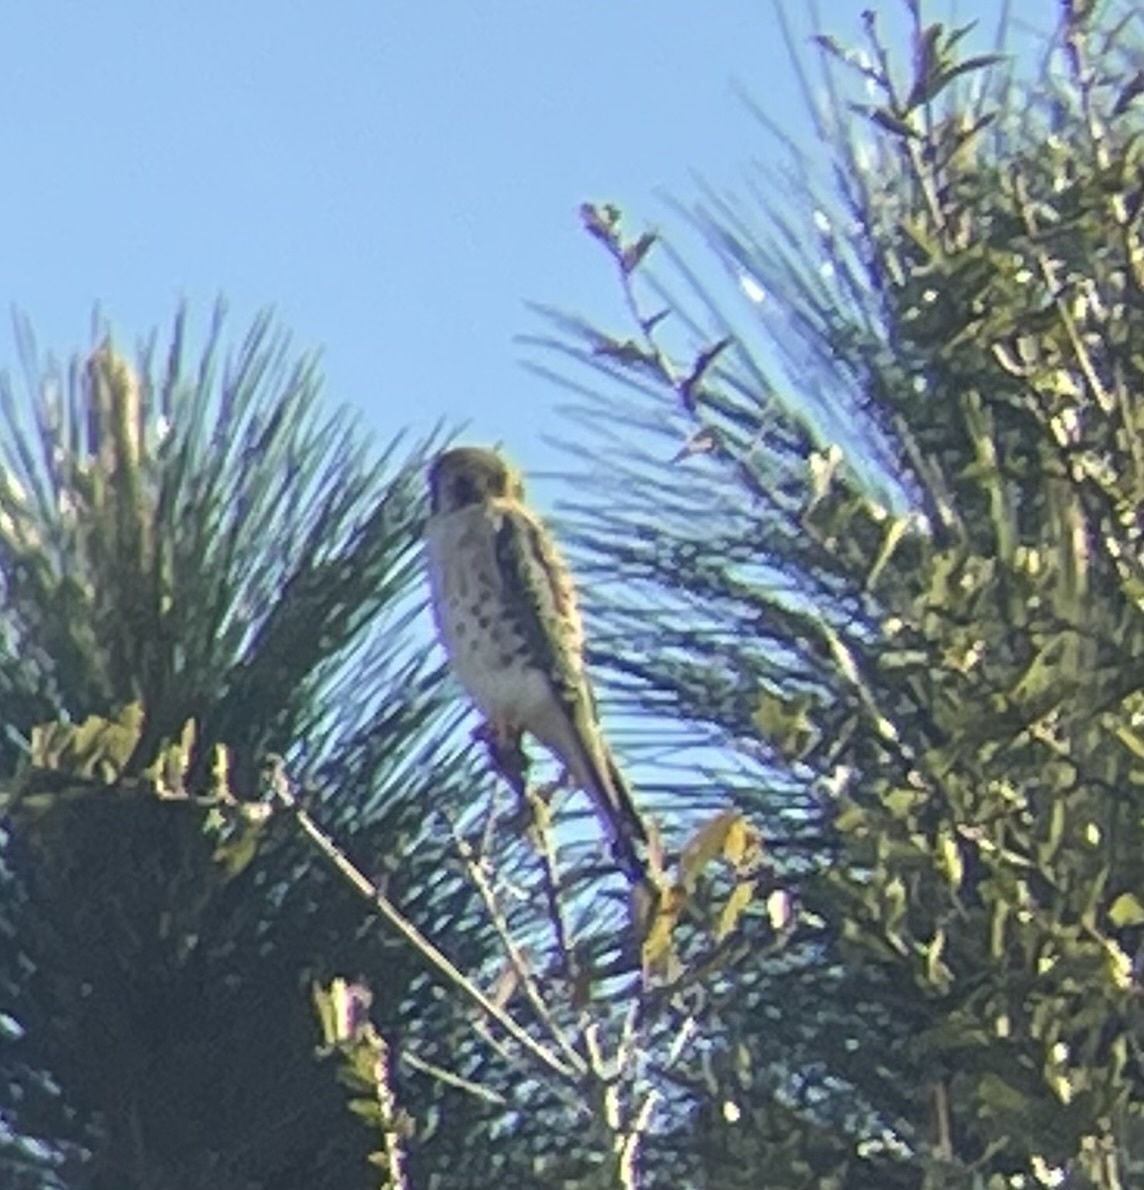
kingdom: Animalia
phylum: Chordata
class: Aves
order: Falconiformes
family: Falconidae
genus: Falco
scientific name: Falco sparverius
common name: American kestrel
